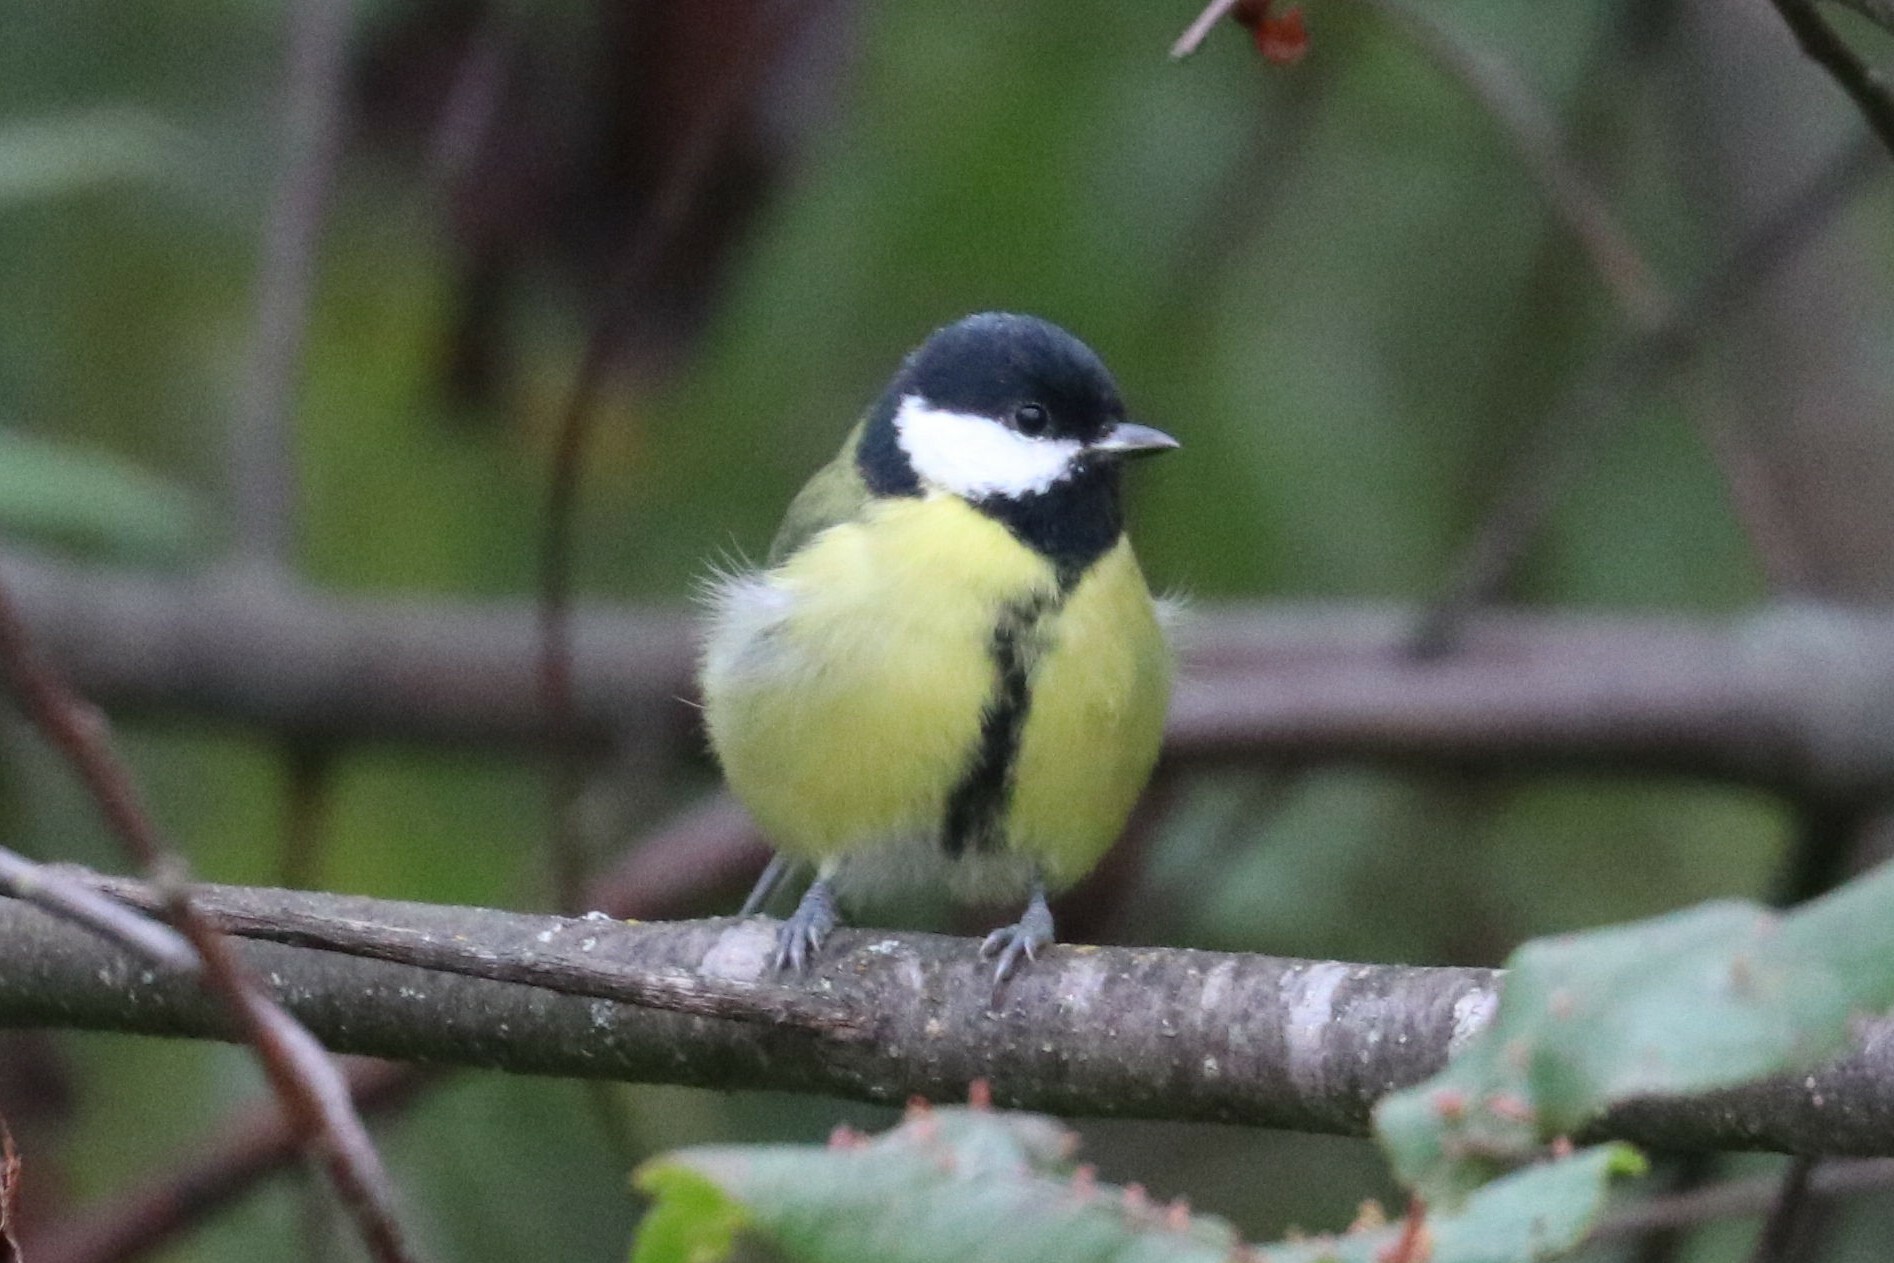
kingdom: Animalia
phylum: Chordata
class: Aves
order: Passeriformes
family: Paridae
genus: Parus
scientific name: Parus major
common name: Great tit
